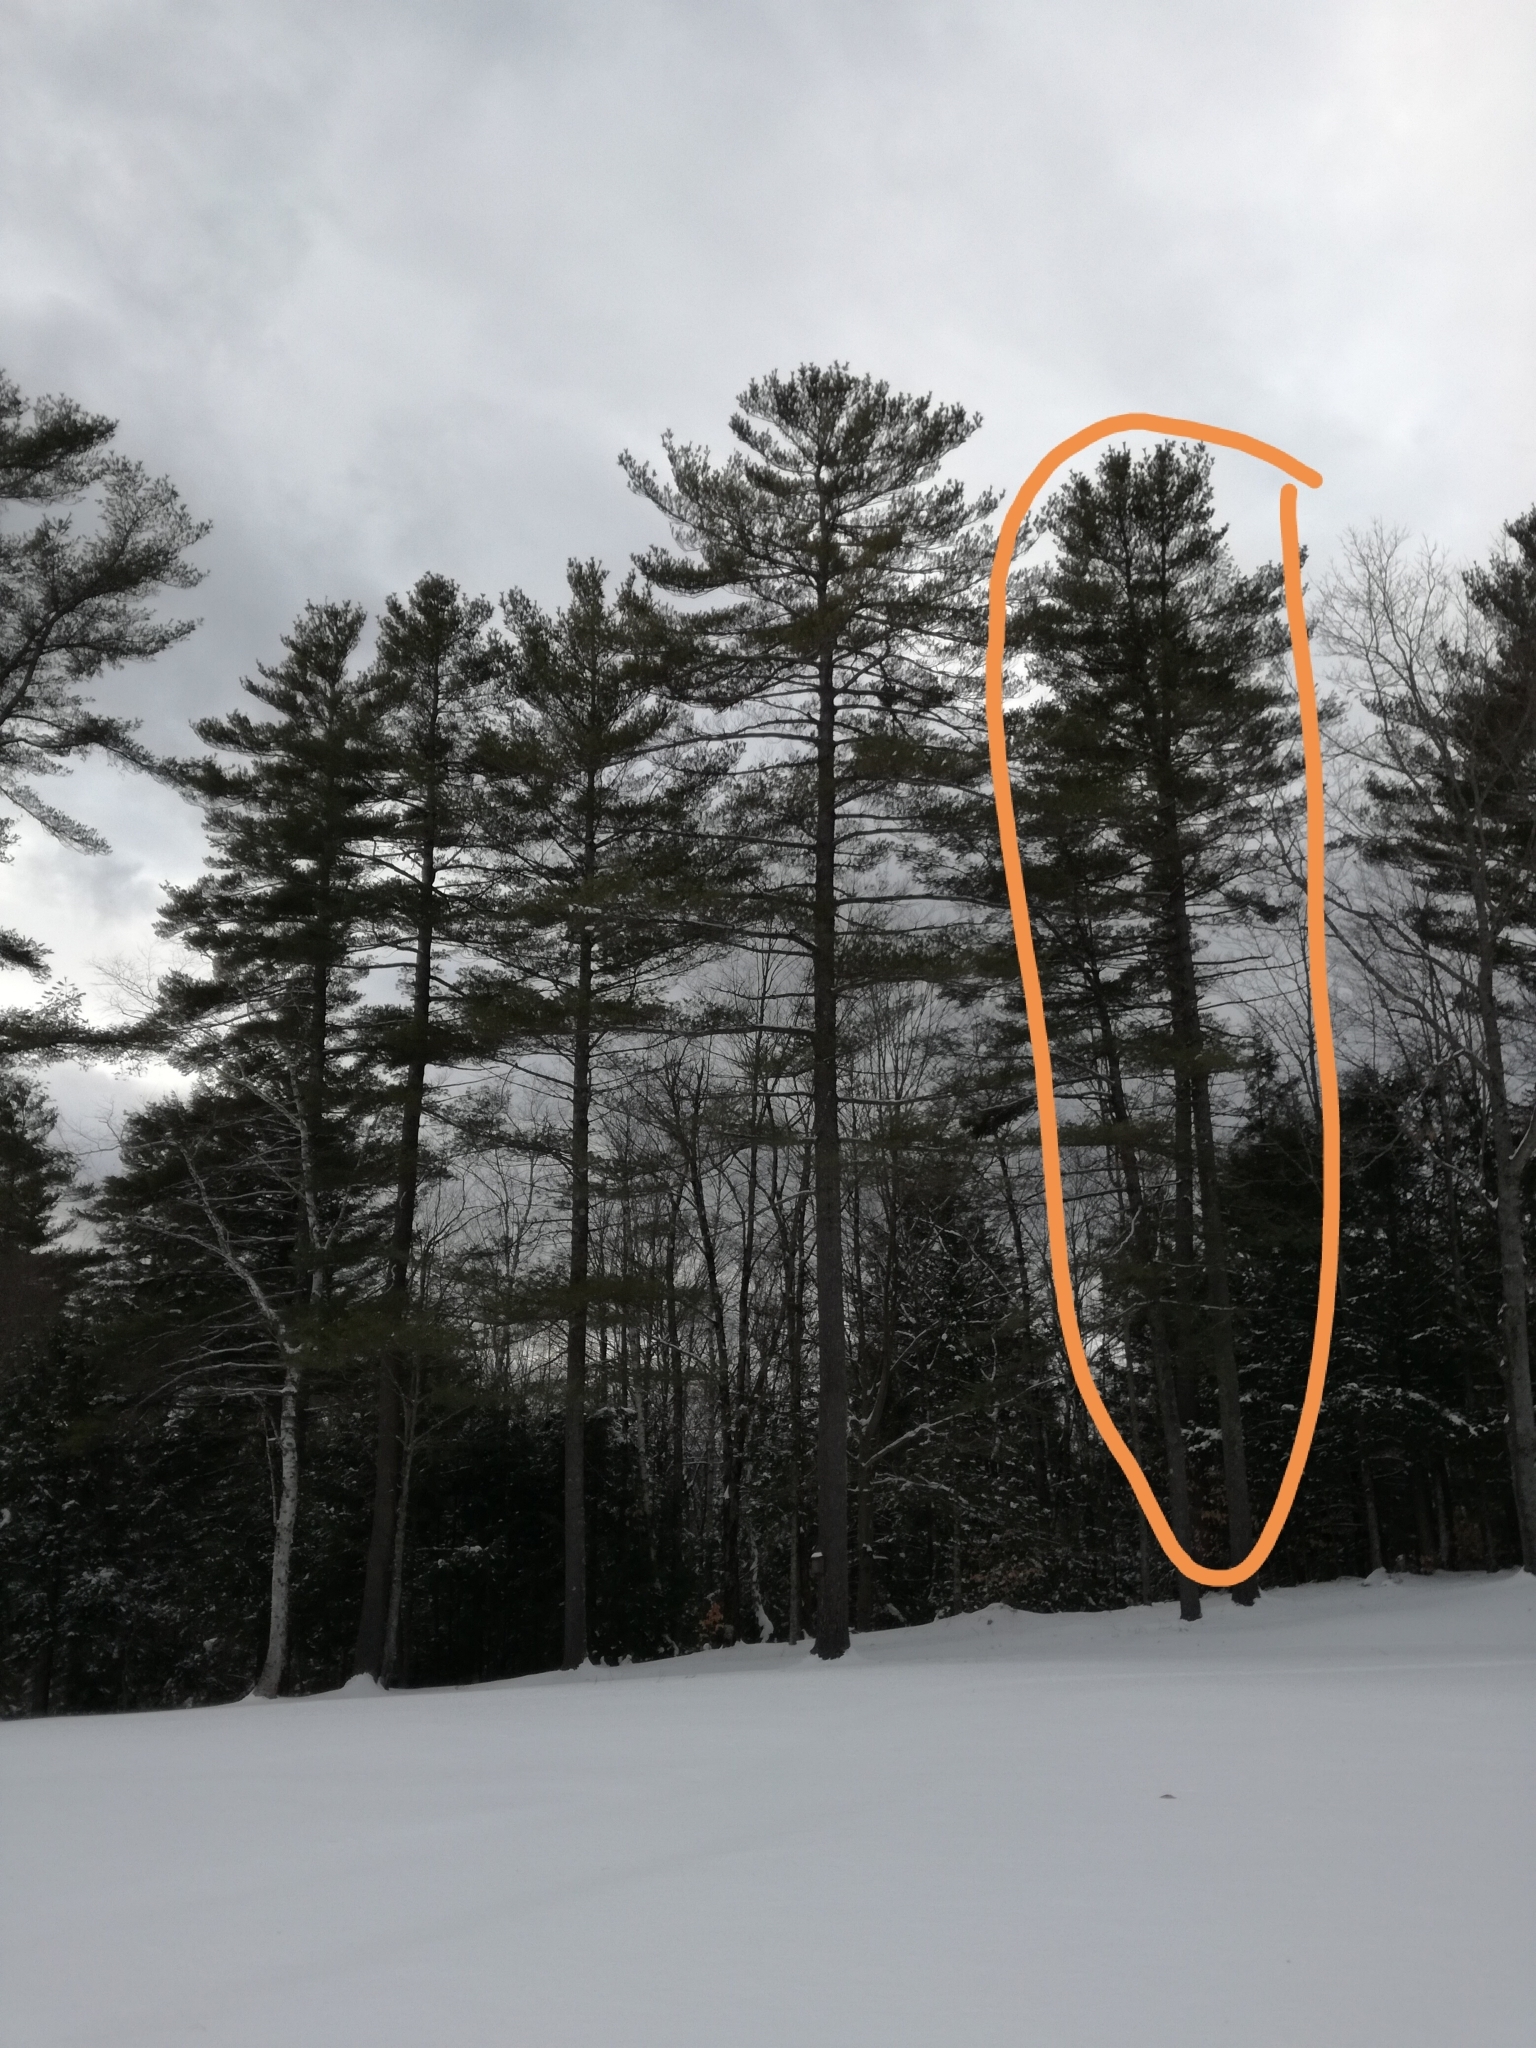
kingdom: Plantae
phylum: Tracheophyta
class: Pinopsida
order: Pinales
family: Pinaceae
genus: Pinus
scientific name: Pinus strobus
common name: Weymouth pine
